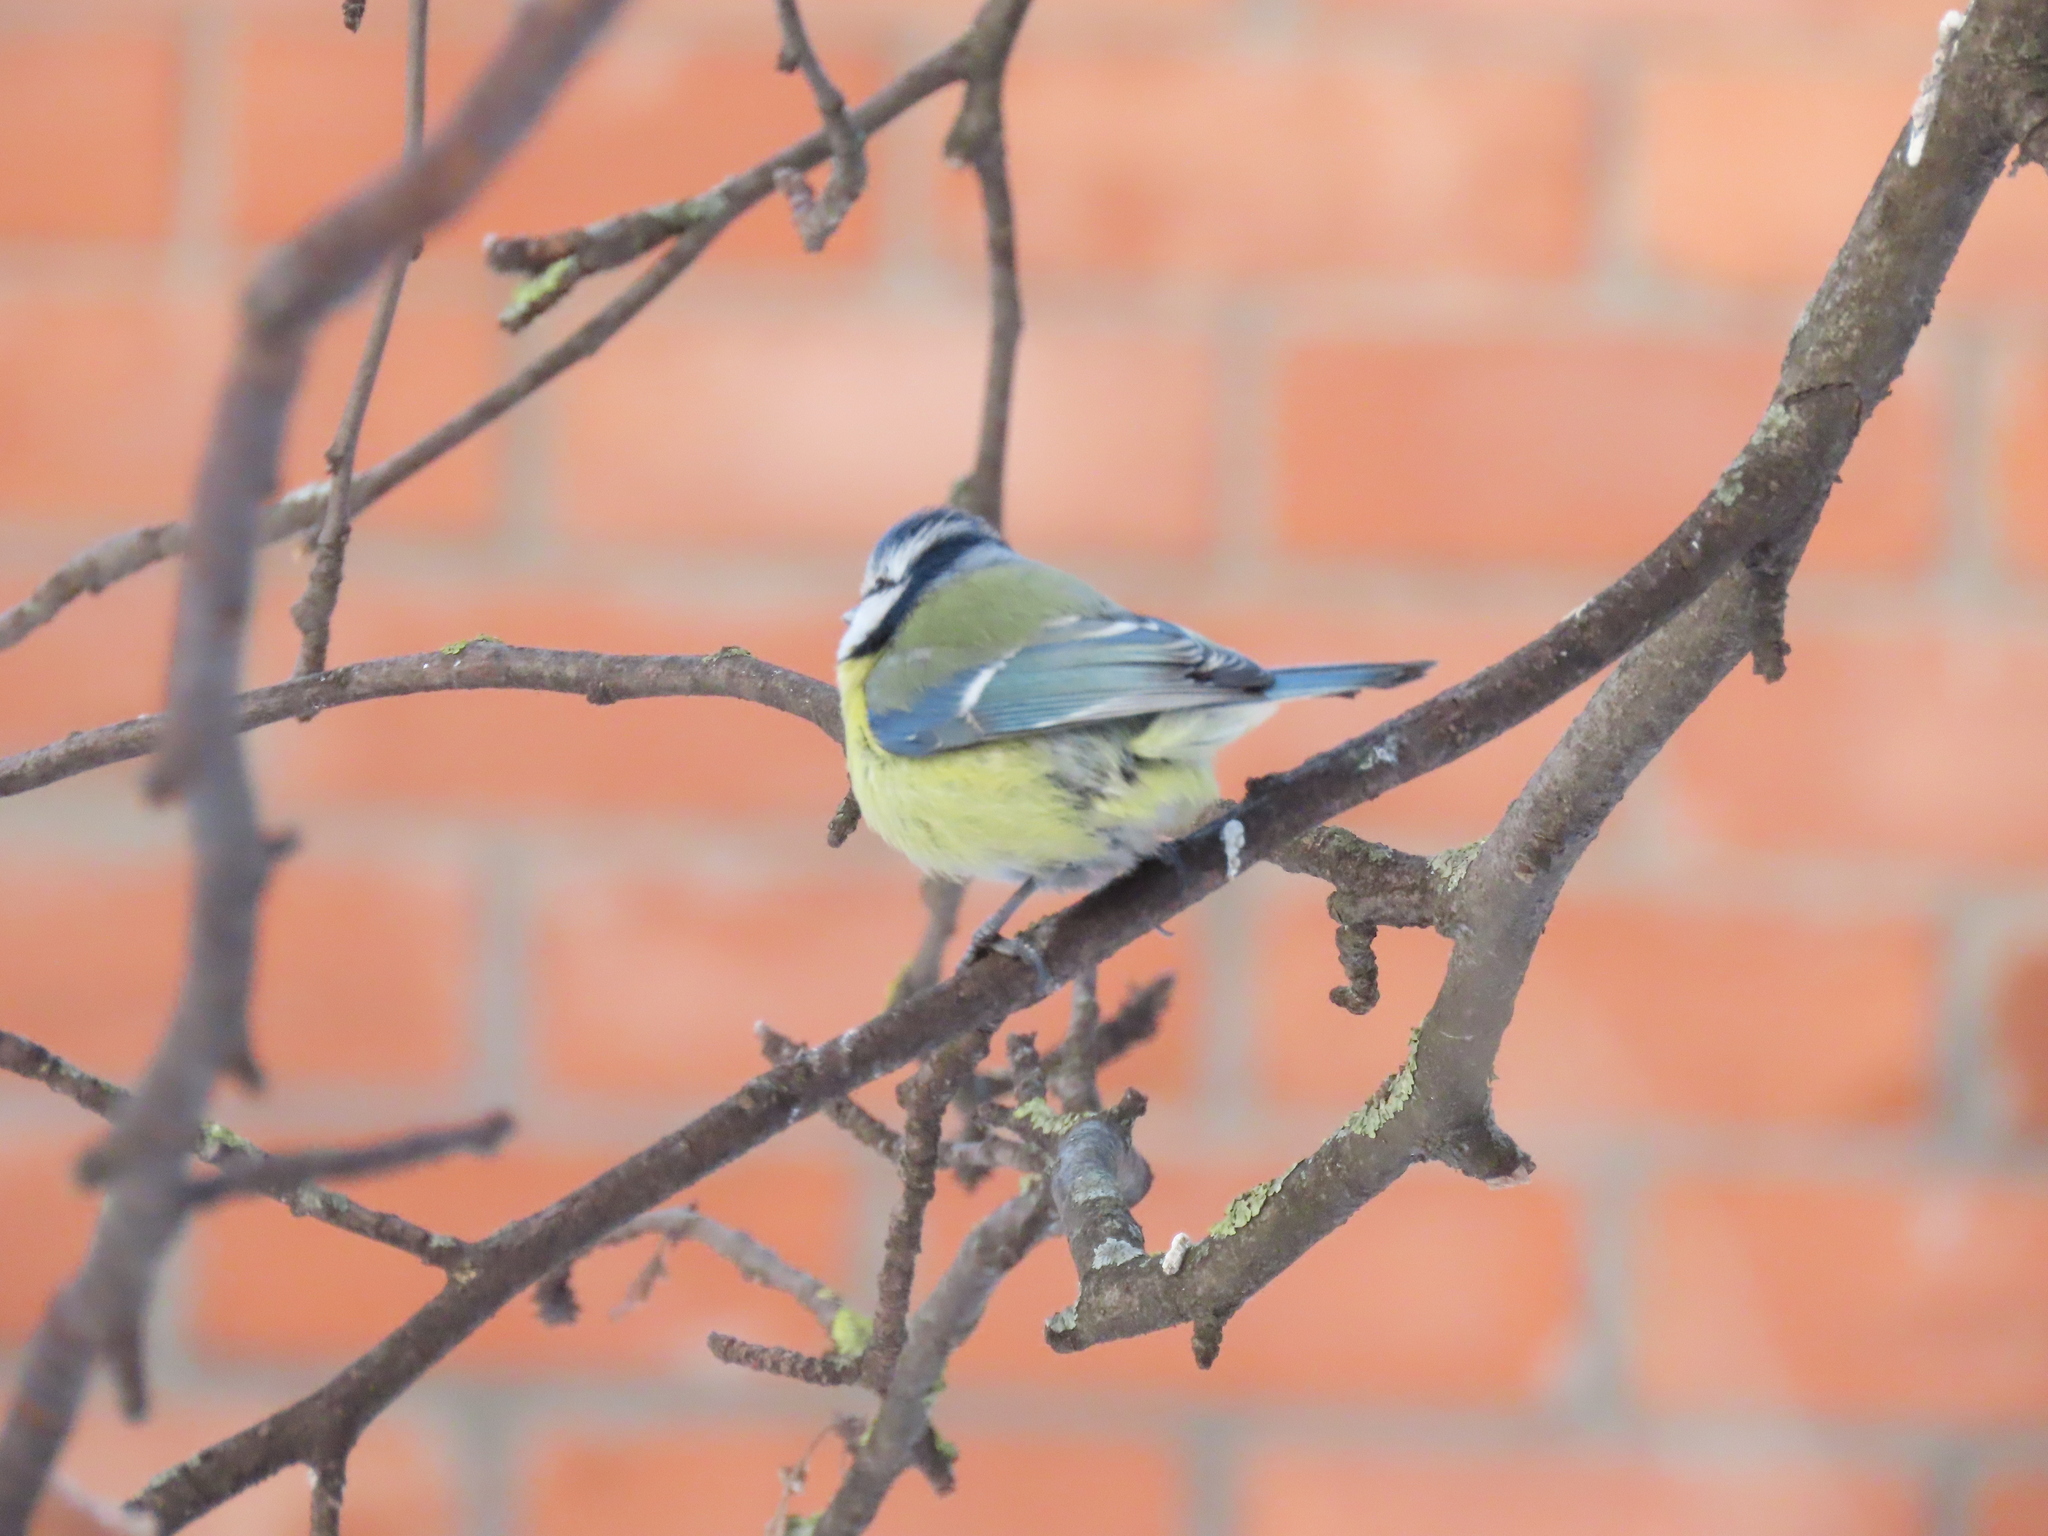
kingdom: Animalia
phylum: Chordata
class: Aves
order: Passeriformes
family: Paridae
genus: Cyanistes
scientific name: Cyanistes caeruleus
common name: Eurasian blue tit
